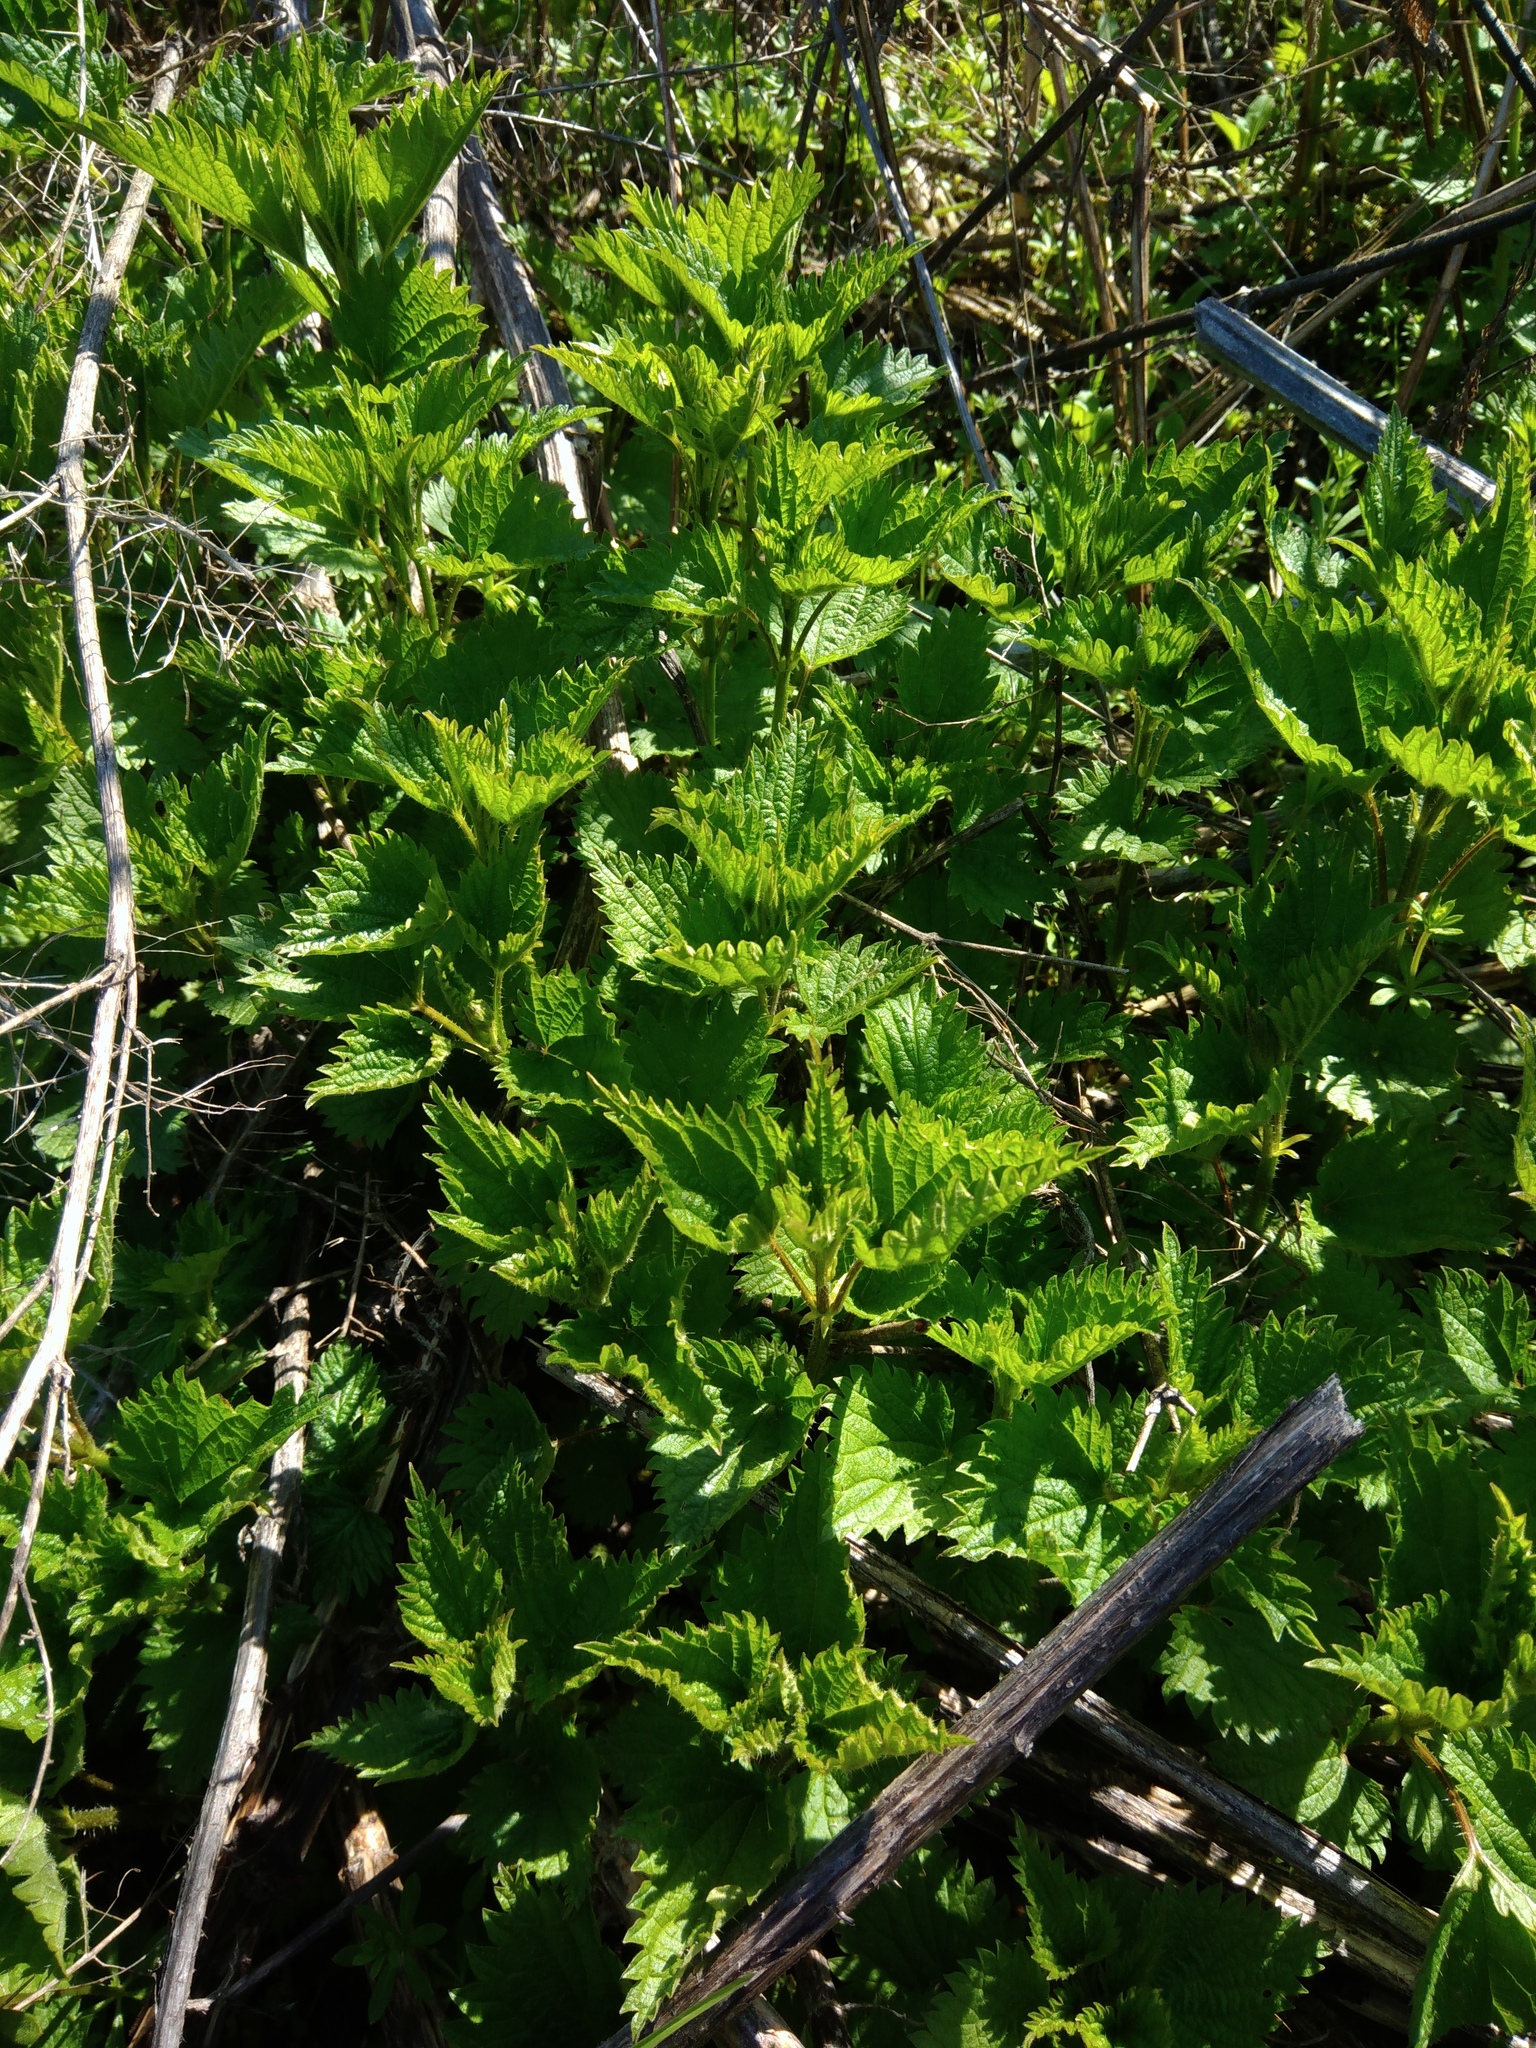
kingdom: Plantae
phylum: Tracheophyta
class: Magnoliopsida
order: Rosales
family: Urticaceae
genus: Urtica
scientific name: Urtica dioica
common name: Common nettle
